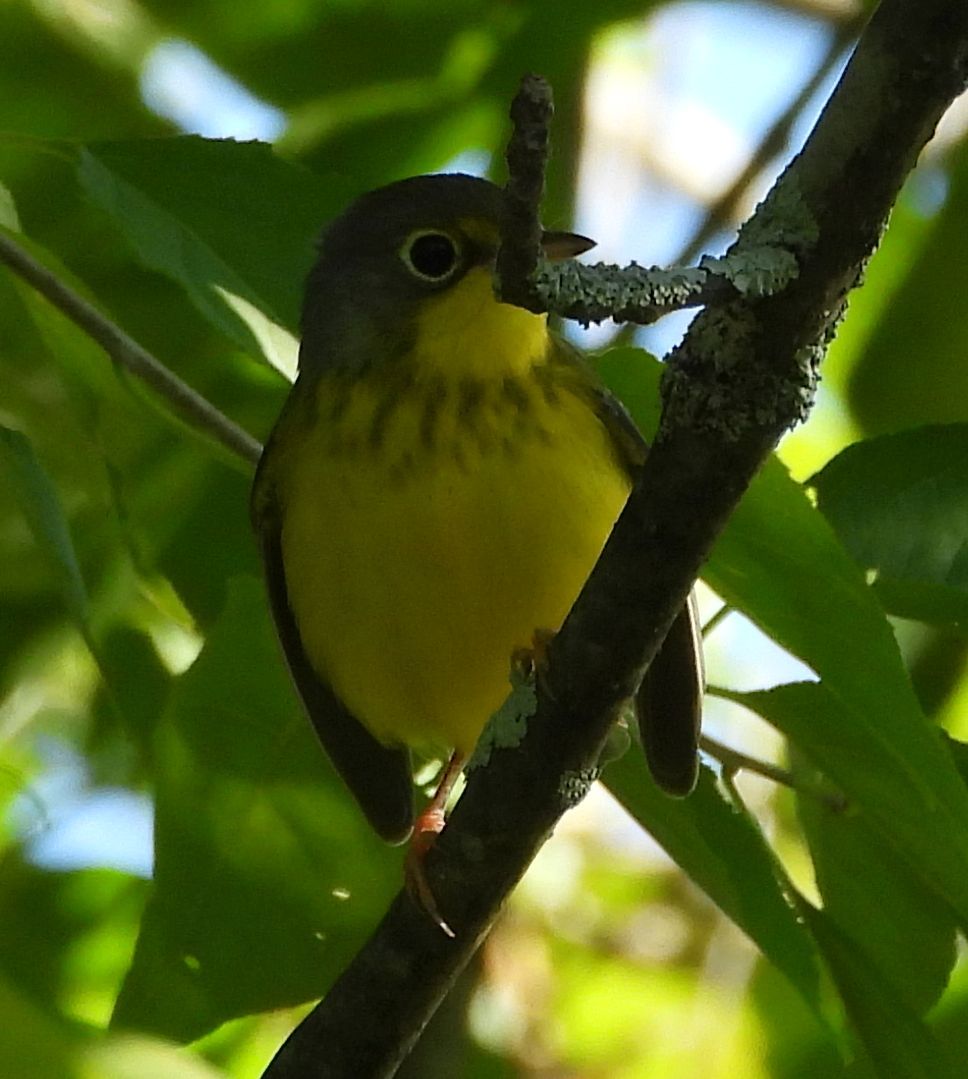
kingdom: Animalia
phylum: Chordata
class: Aves
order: Passeriformes
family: Parulidae
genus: Cardellina
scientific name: Cardellina canadensis
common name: Canada warbler
